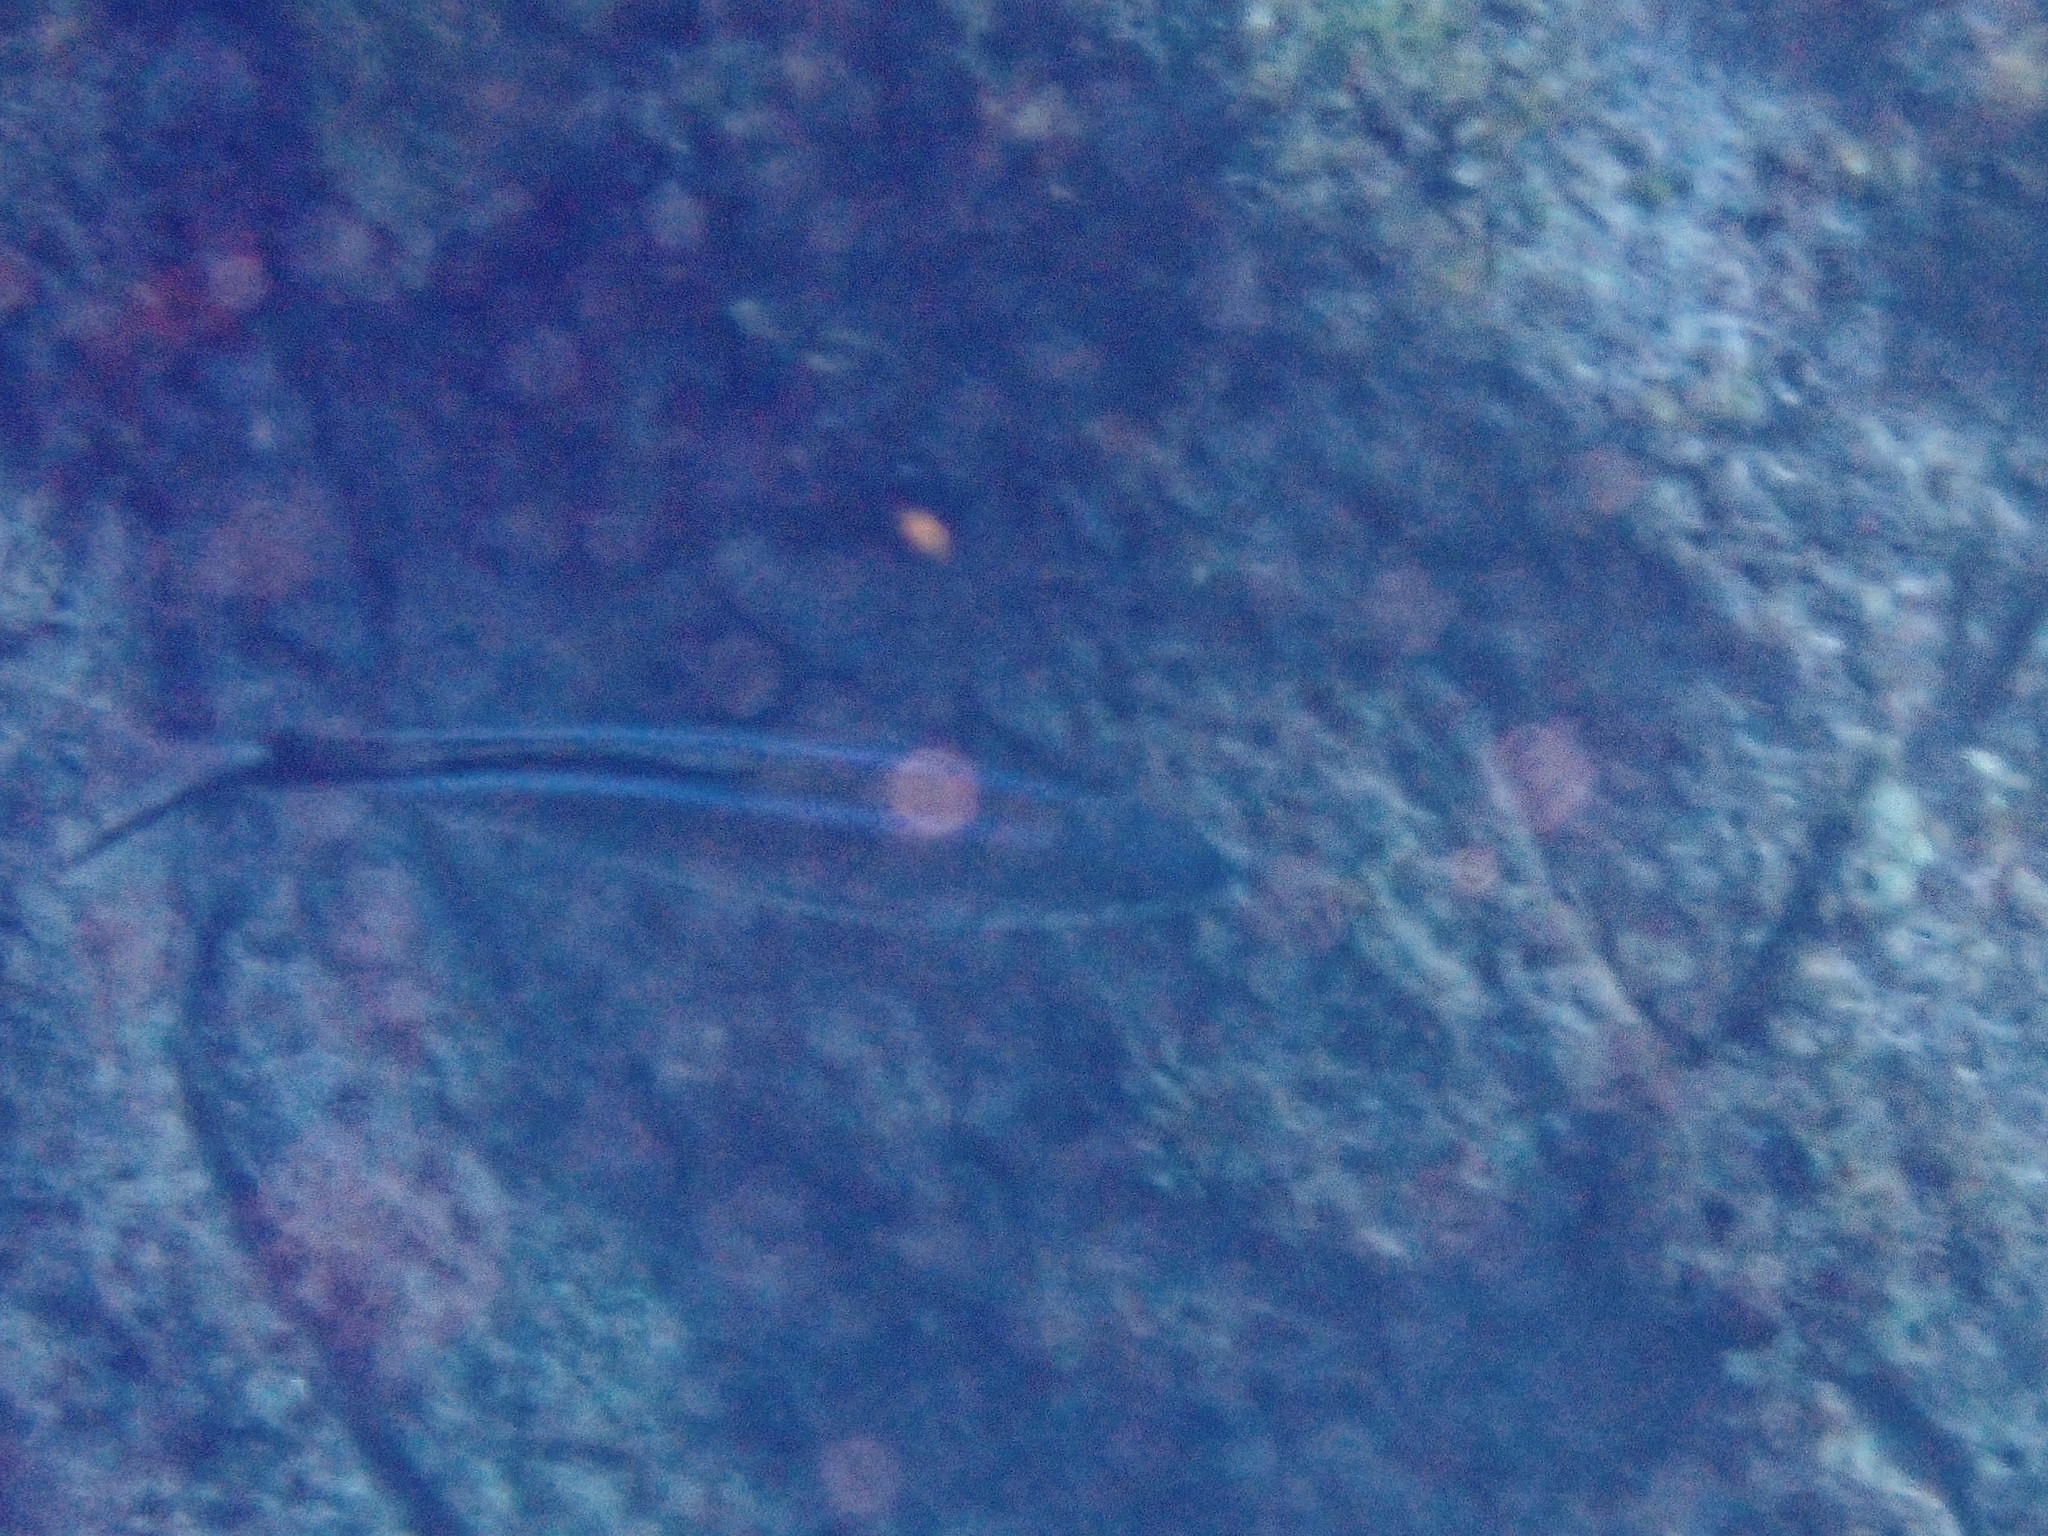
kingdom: Animalia
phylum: Chordata
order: Perciformes
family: Carangidae
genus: Caranx
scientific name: Caranx ruber
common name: Bar jack
